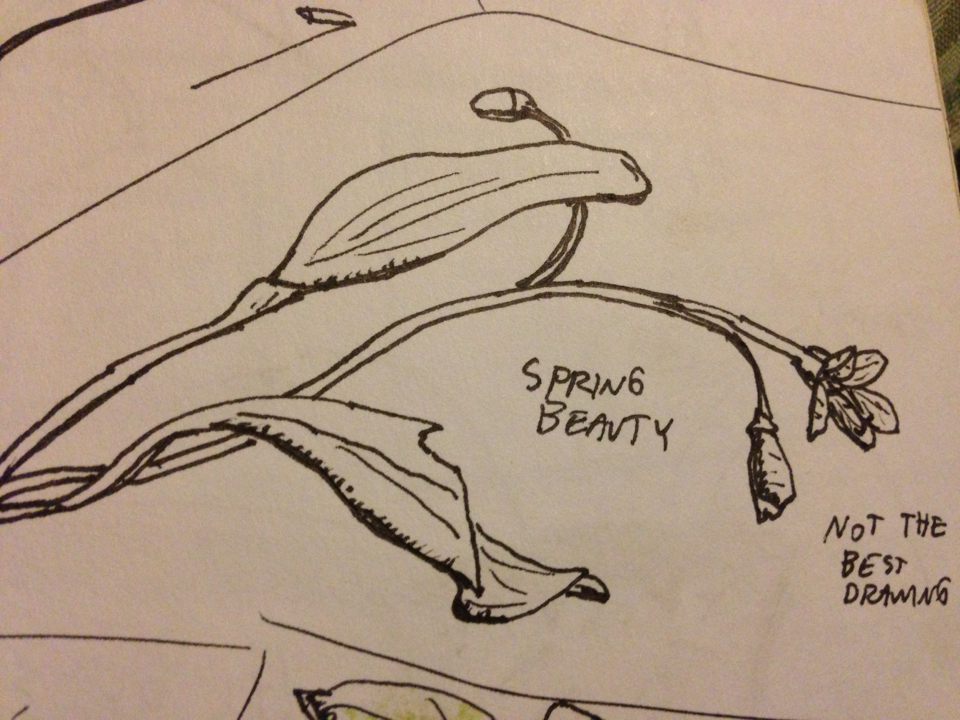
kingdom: Plantae
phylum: Tracheophyta
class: Magnoliopsida
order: Caryophyllales
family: Montiaceae
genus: Claytonia
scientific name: Claytonia caroliniana
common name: Carolina spring beauty
